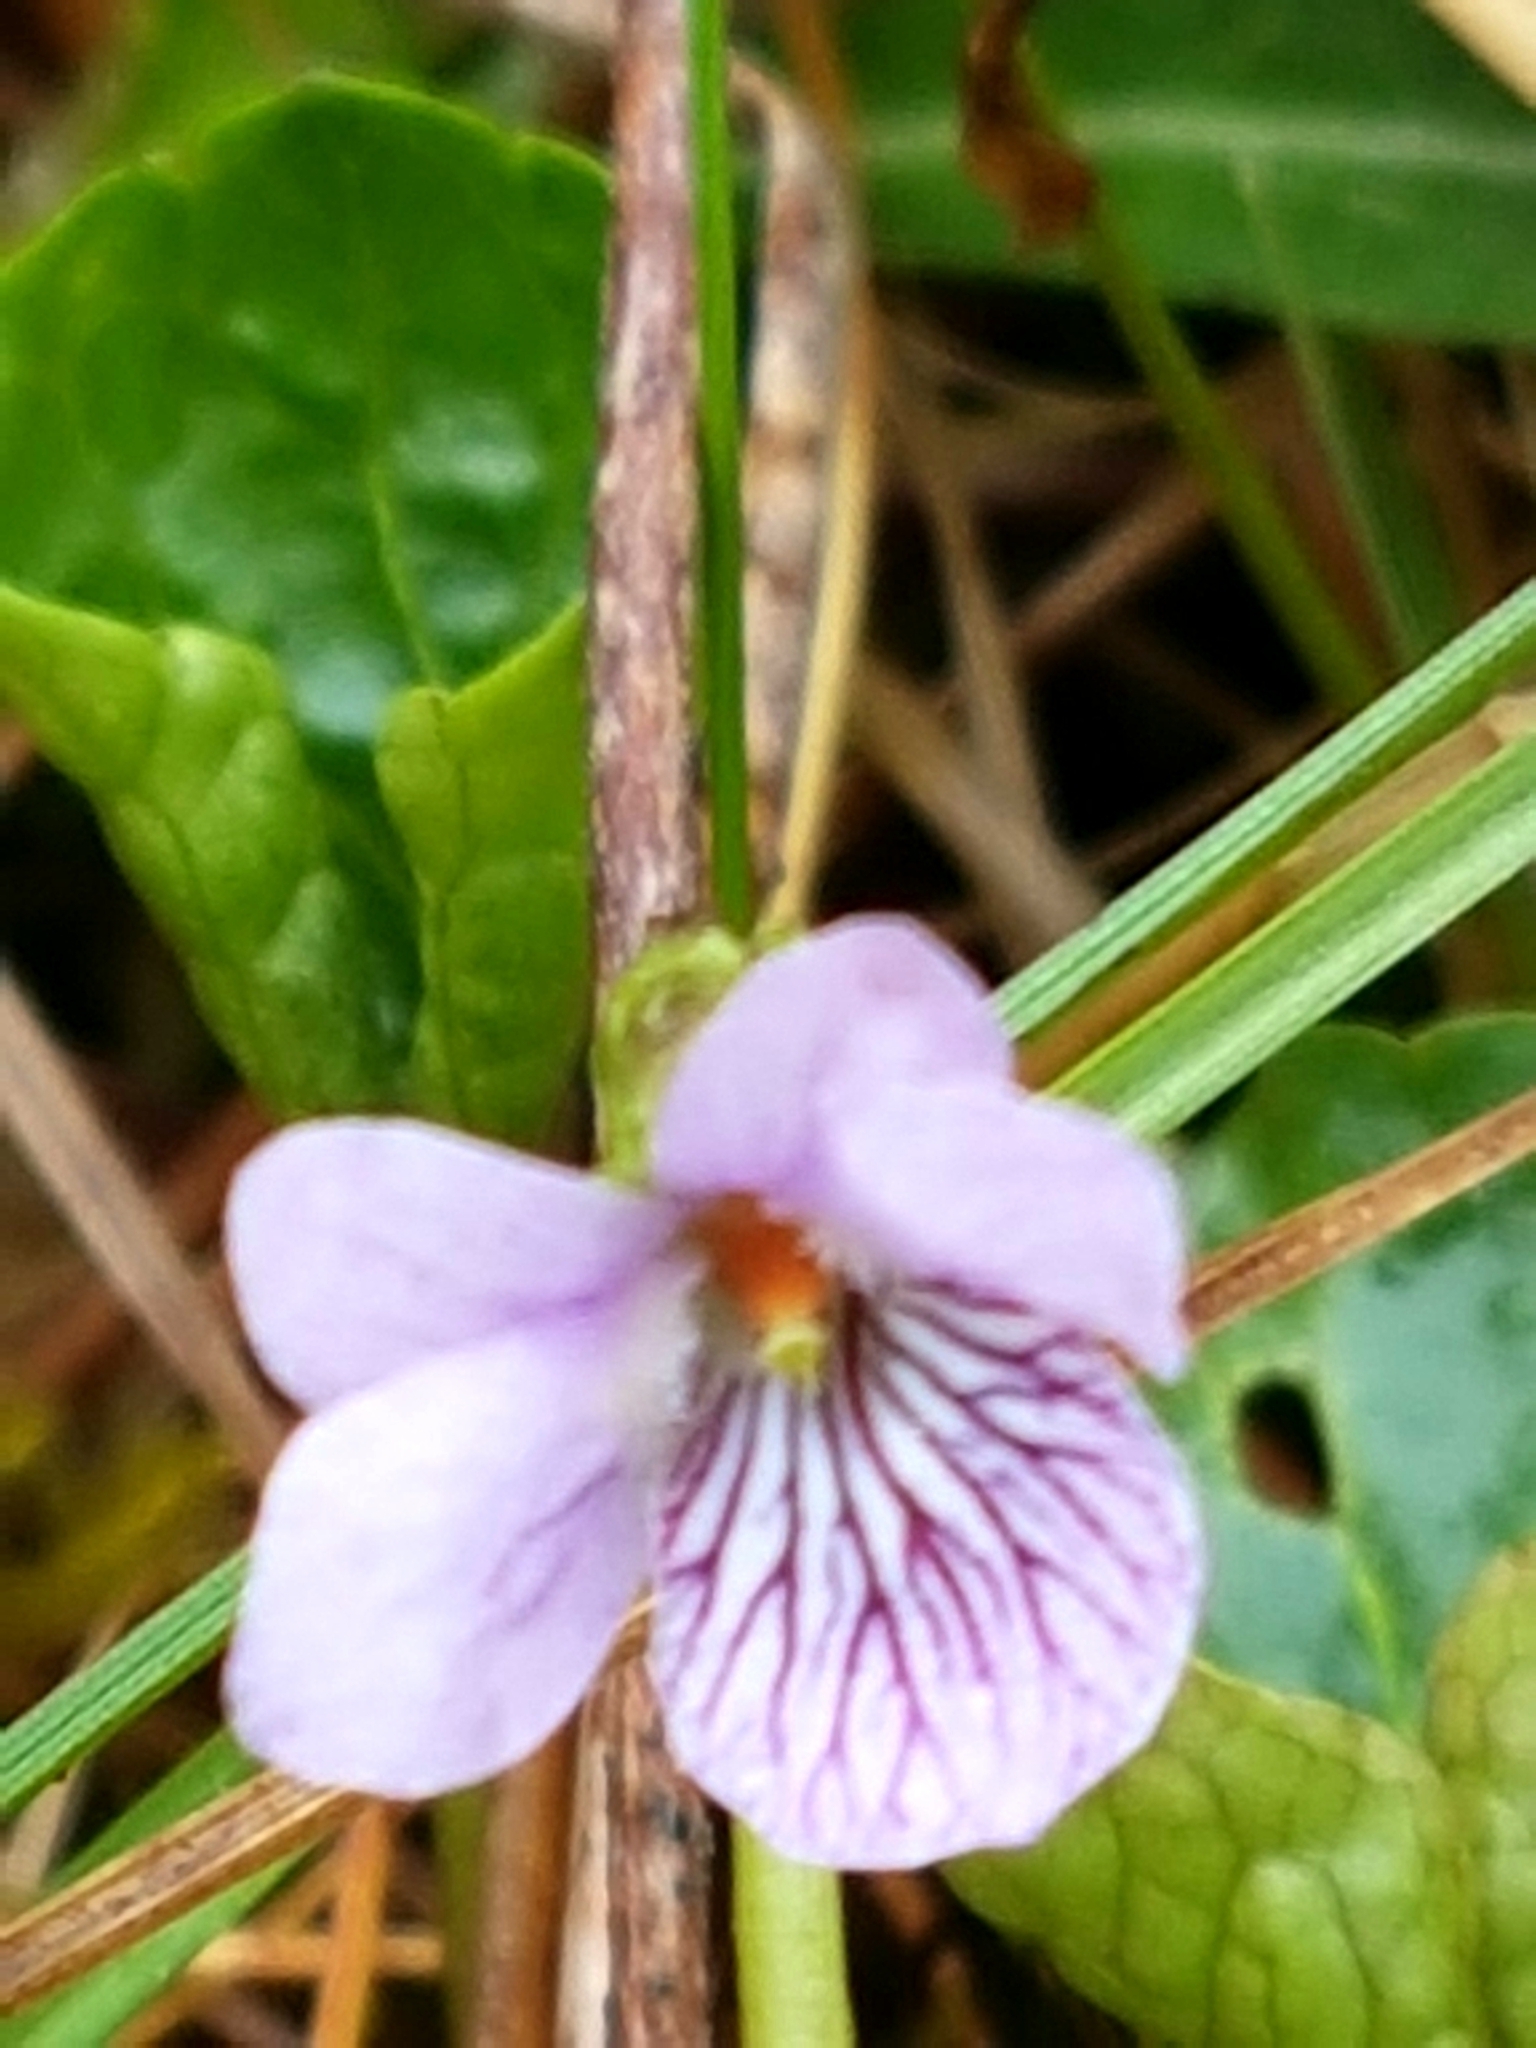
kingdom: Plantae
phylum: Tracheophyta
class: Magnoliopsida
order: Malpighiales
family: Violaceae
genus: Viola
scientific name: Viola palustris
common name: Marsh violet
